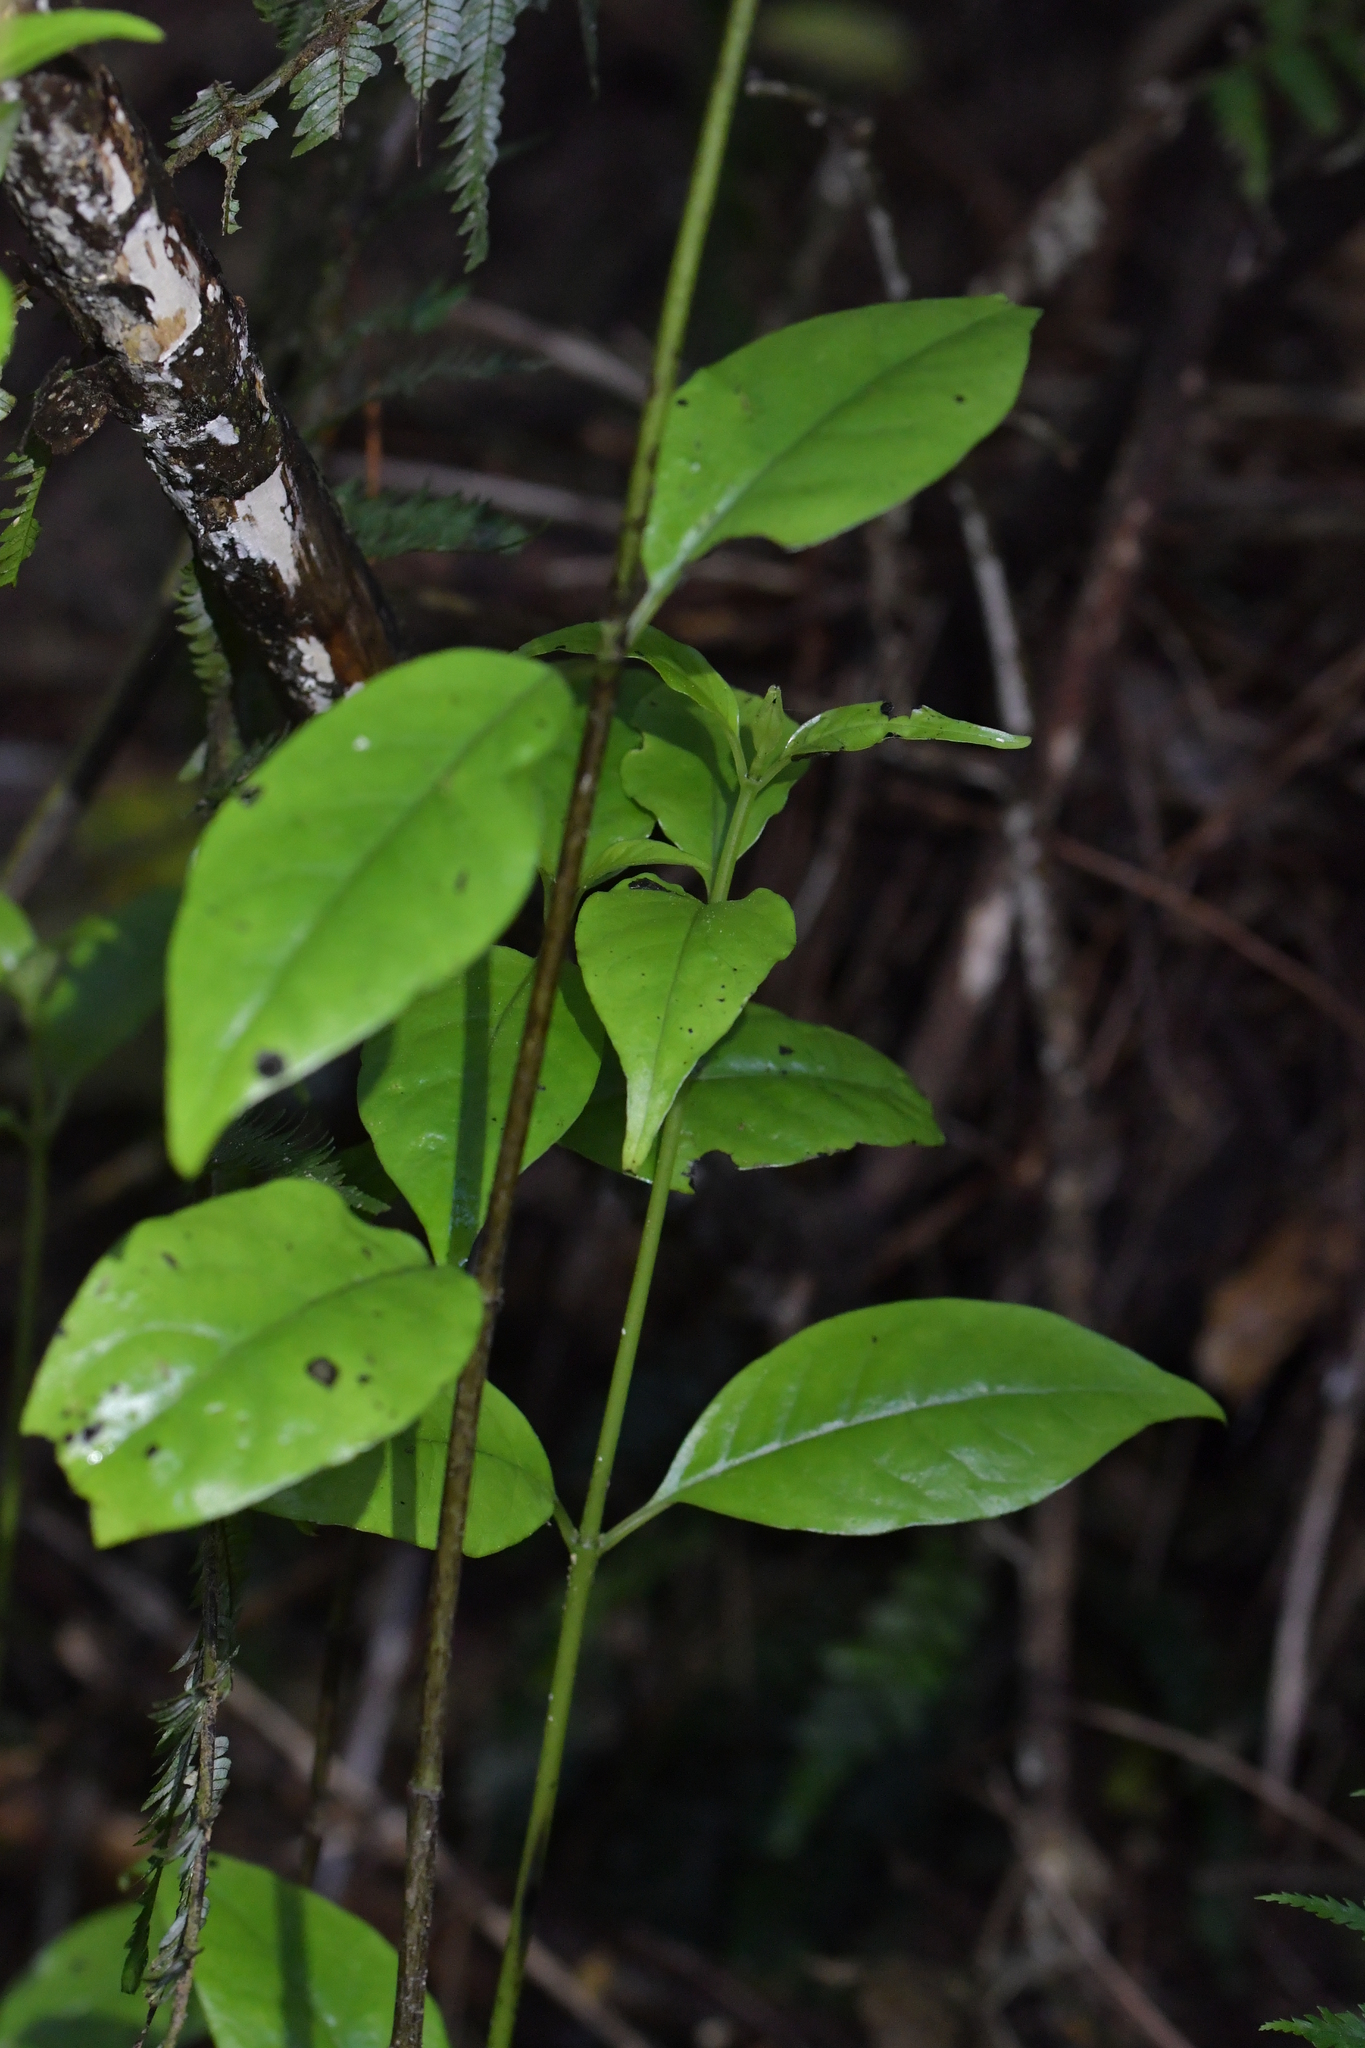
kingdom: Plantae
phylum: Tracheophyta
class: Magnoliopsida
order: Gentianales
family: Loganiaceae
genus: Geniostoma
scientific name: Geniostoma ligustrifolium
